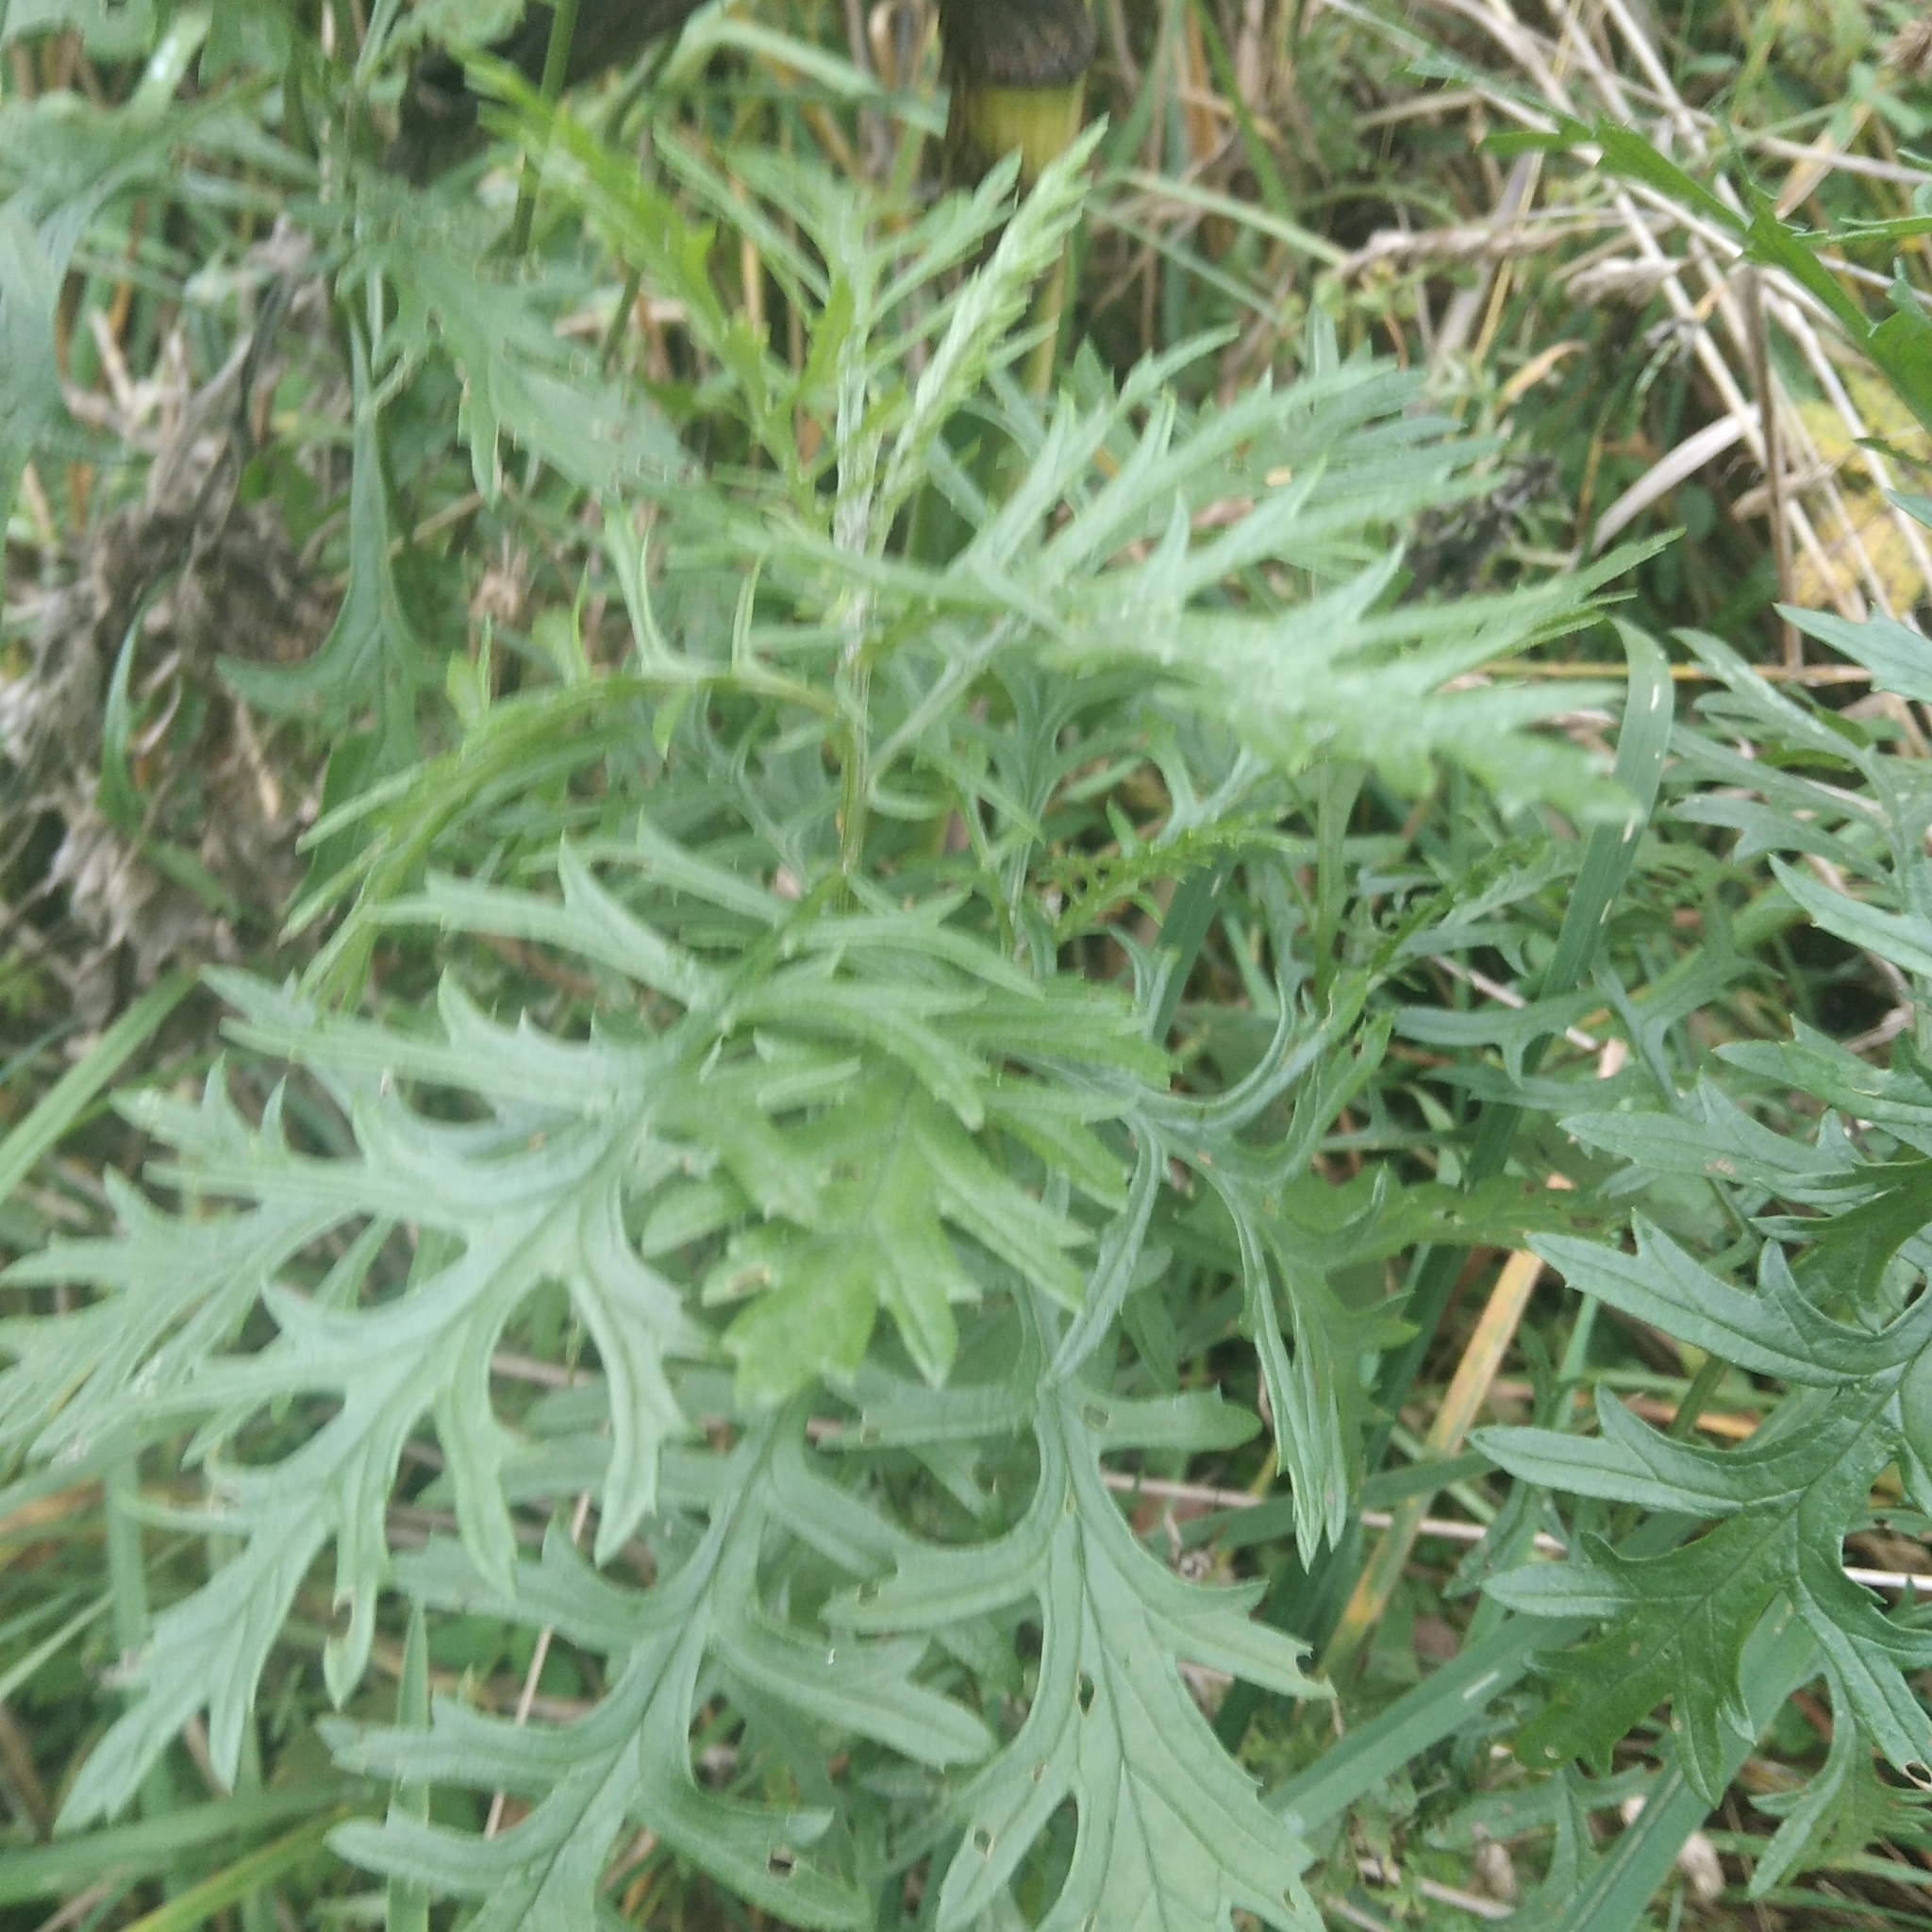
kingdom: Plantae
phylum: Tracheophyta
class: Magnoliopsida
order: Asterales
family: Asteraceae
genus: Jacobaea
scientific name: Jacobaea erucifolia
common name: Hoary ragwort
